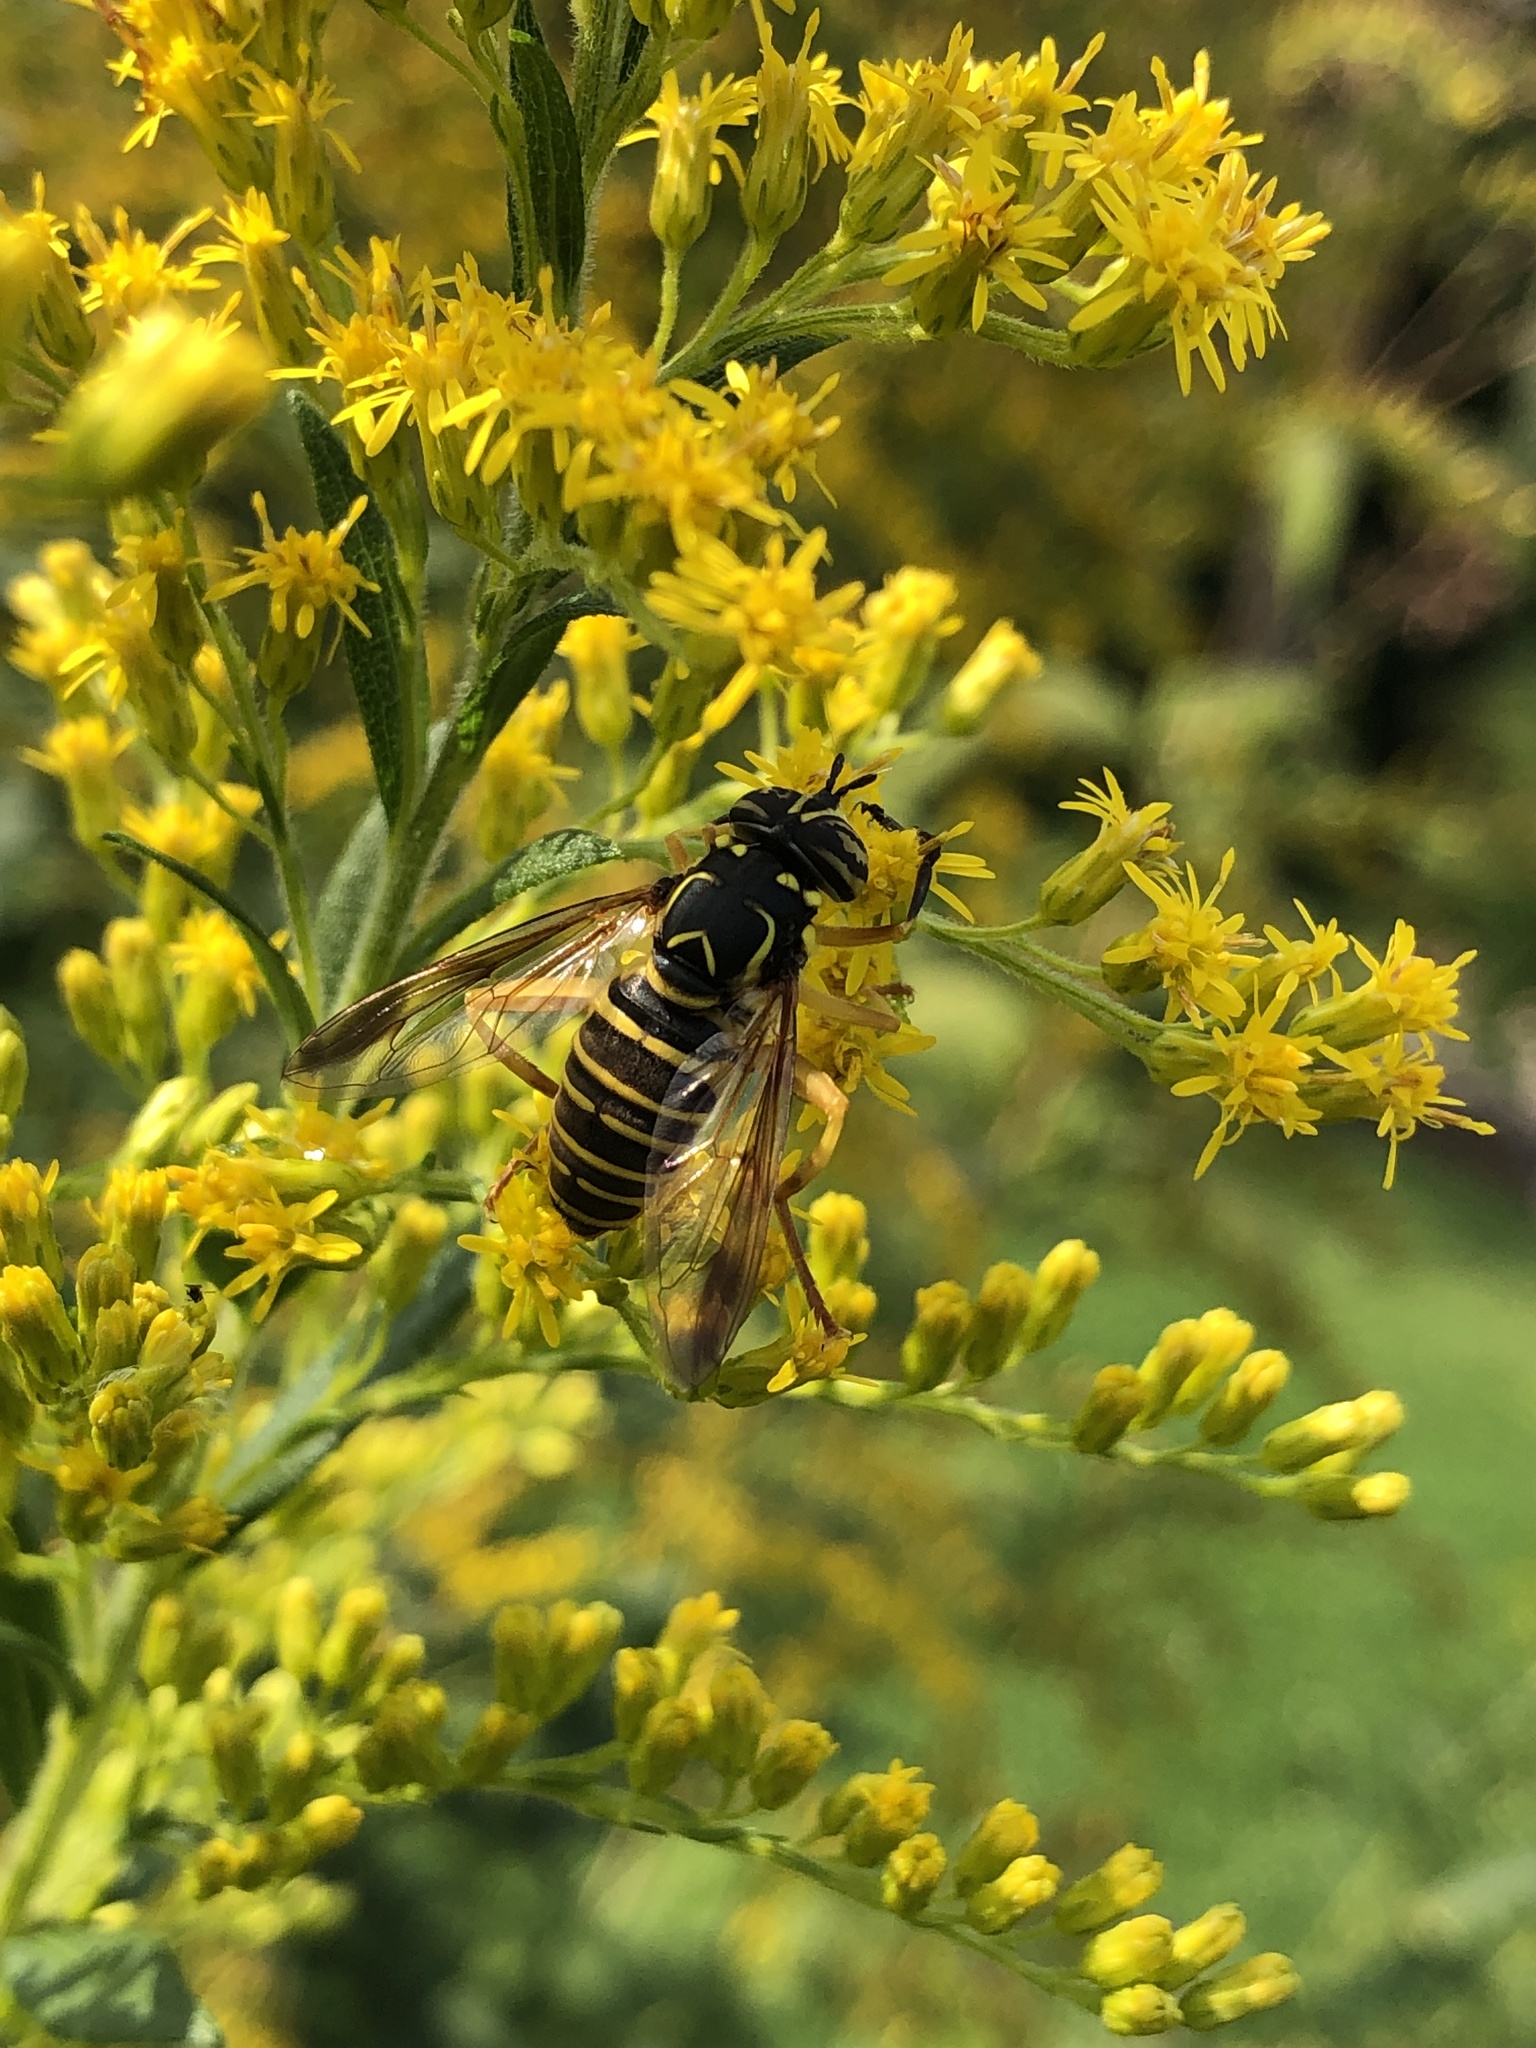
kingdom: Animalia
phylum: Arthropoda
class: Insecta
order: Diptera
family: Syrphidae
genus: Spilomyia
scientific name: Spilomyia longicornis
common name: Eastern hornet fly
